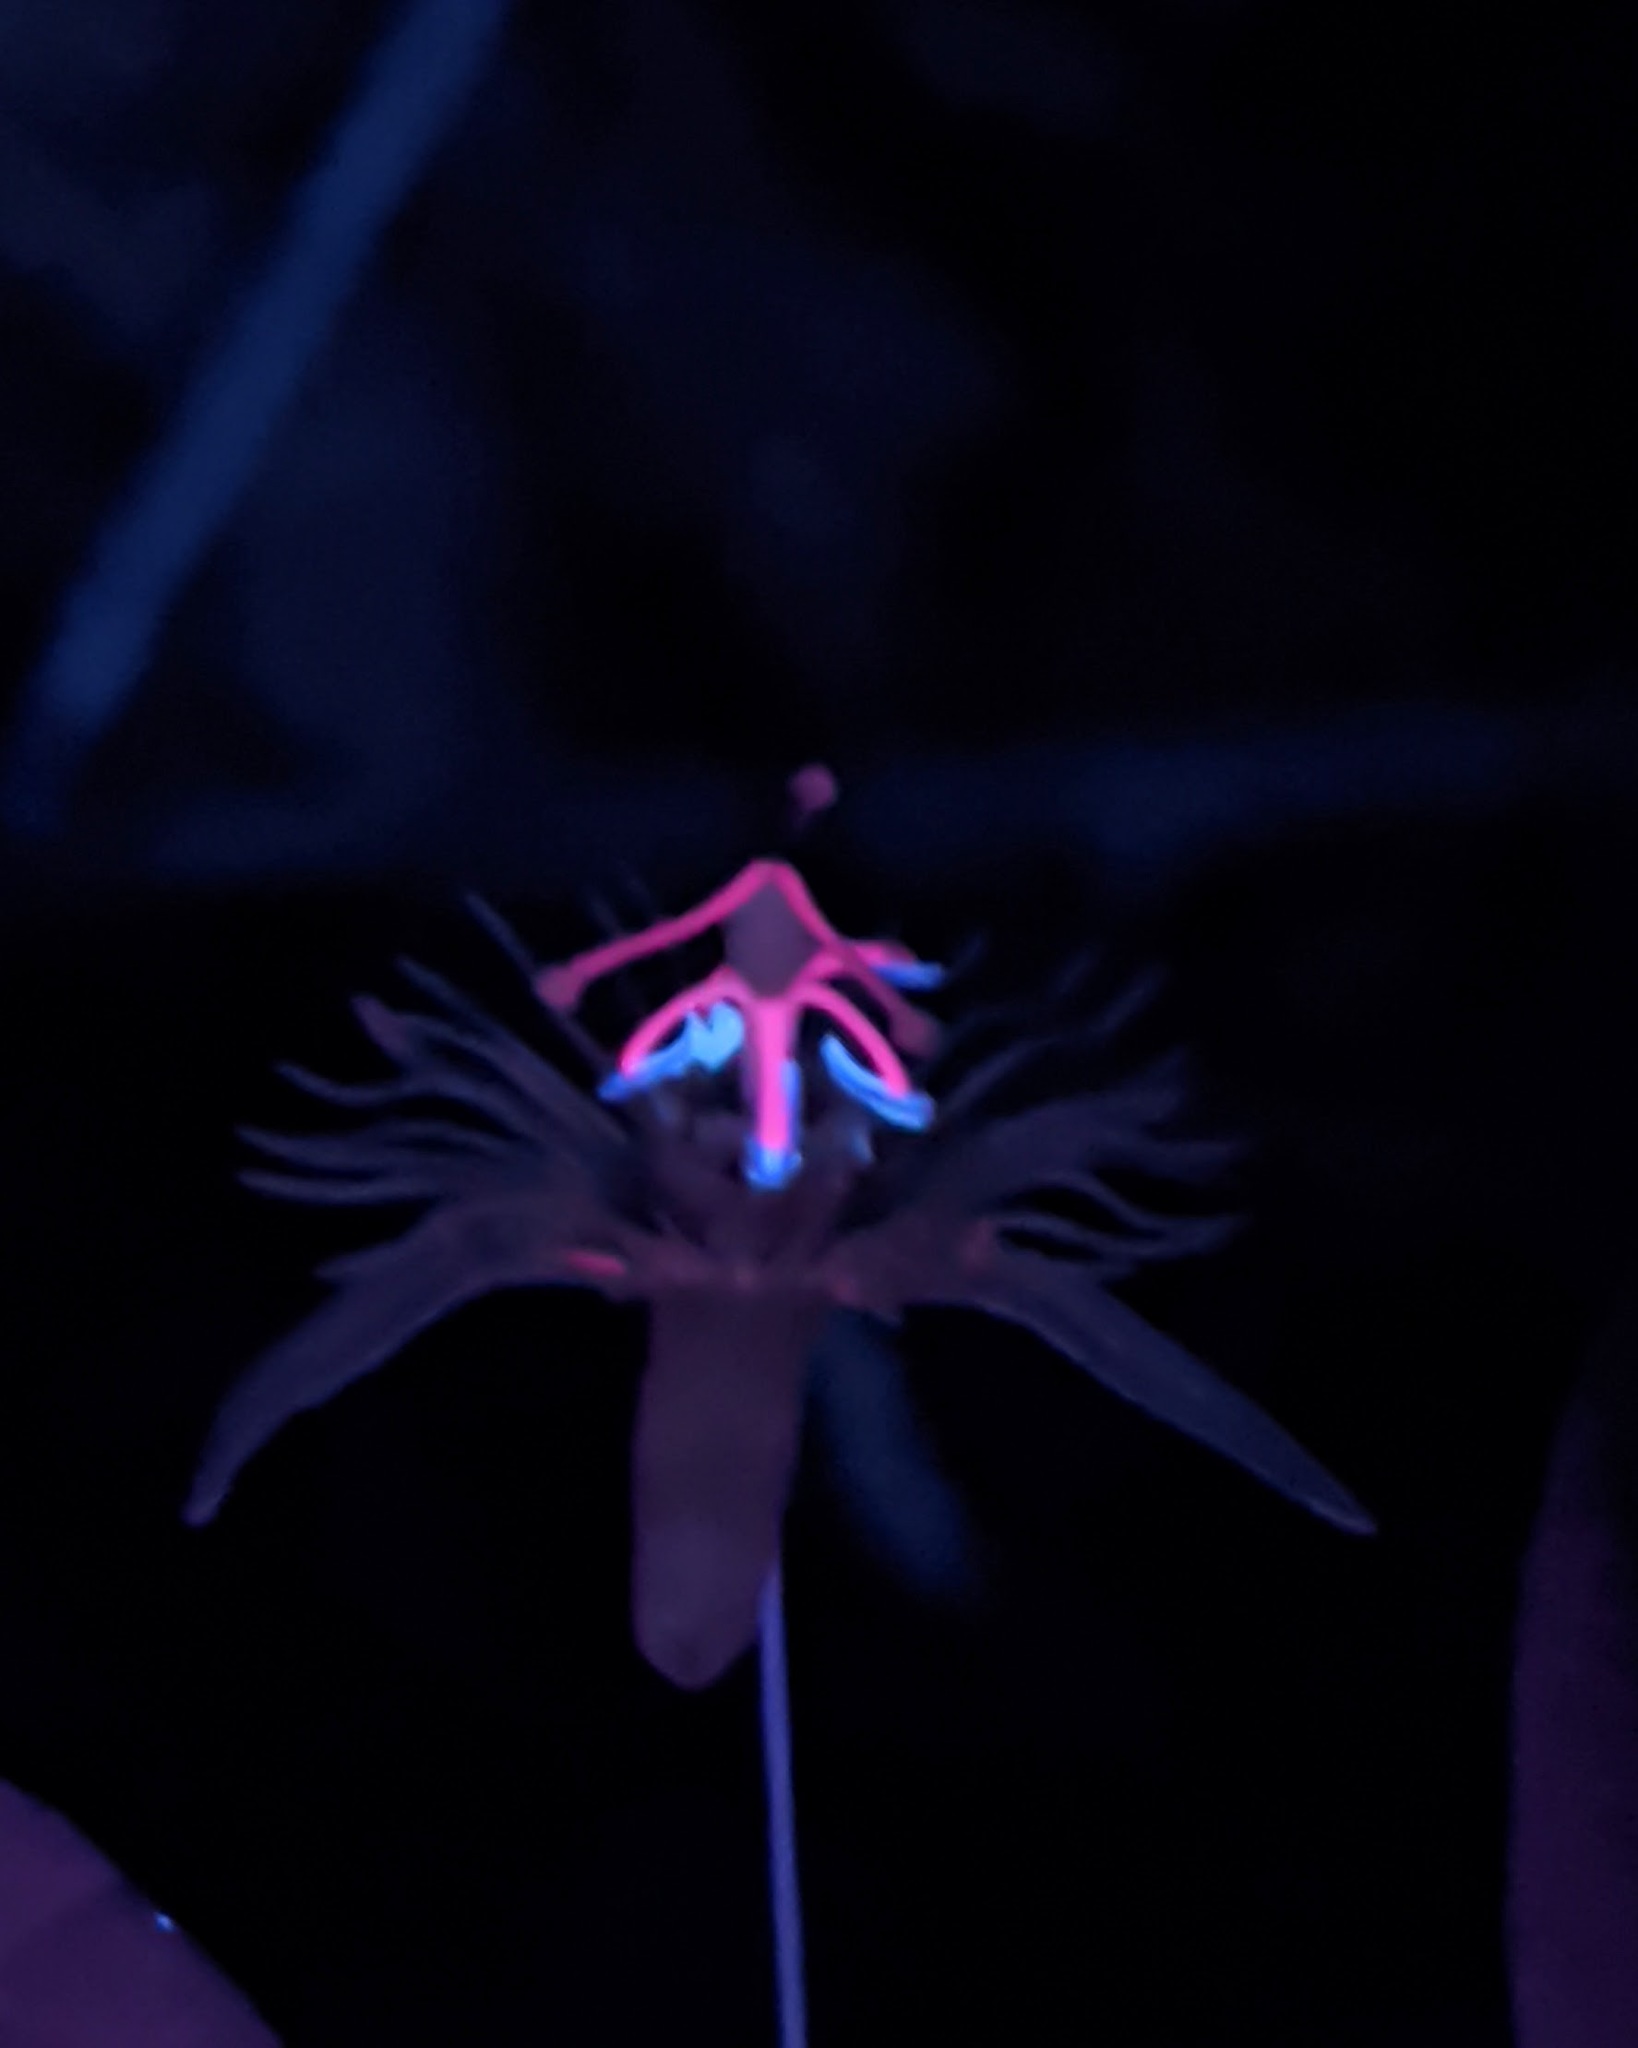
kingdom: Plantae
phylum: Tracheophyta
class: Magnoliopsida
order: Malpighiales
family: Passifloraceae
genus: Passiflora
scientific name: Passiflora lutea
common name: Yellow passionflower
